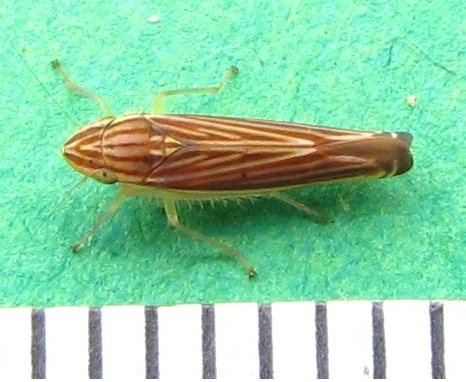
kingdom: Animalia
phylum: Arthropoda
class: Insecta
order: Hemiptera
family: Cicadellidae
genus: Sibovia
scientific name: Sibovia occatoria
